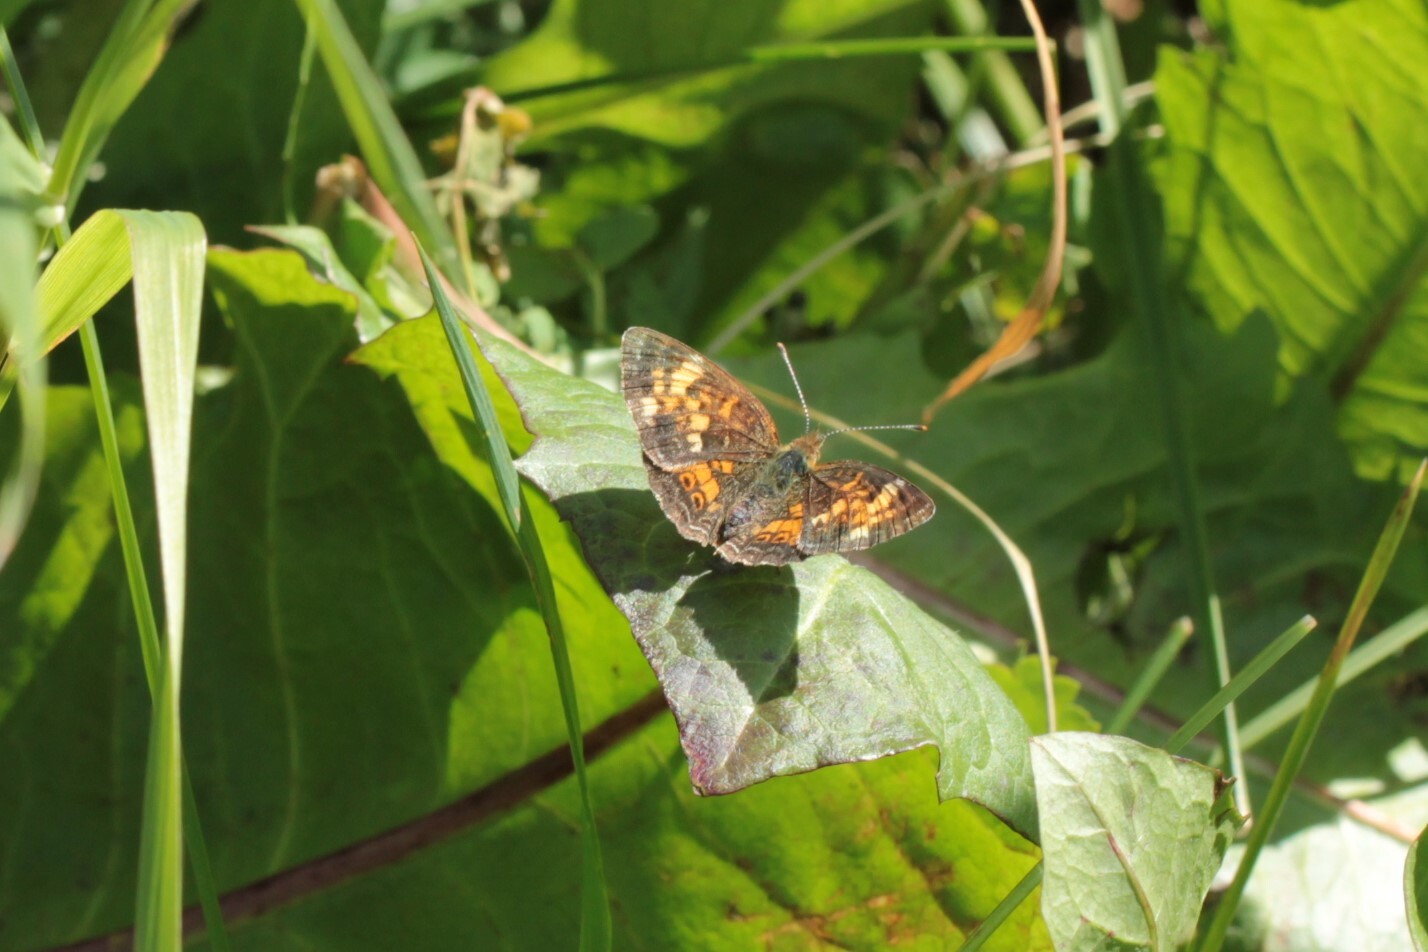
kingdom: Animalia
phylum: Arthropoda
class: Insecta
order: Lepidoptera
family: Nymphalidae
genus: Phyciodes
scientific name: Phyciodes tharos
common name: Pearl crescent
